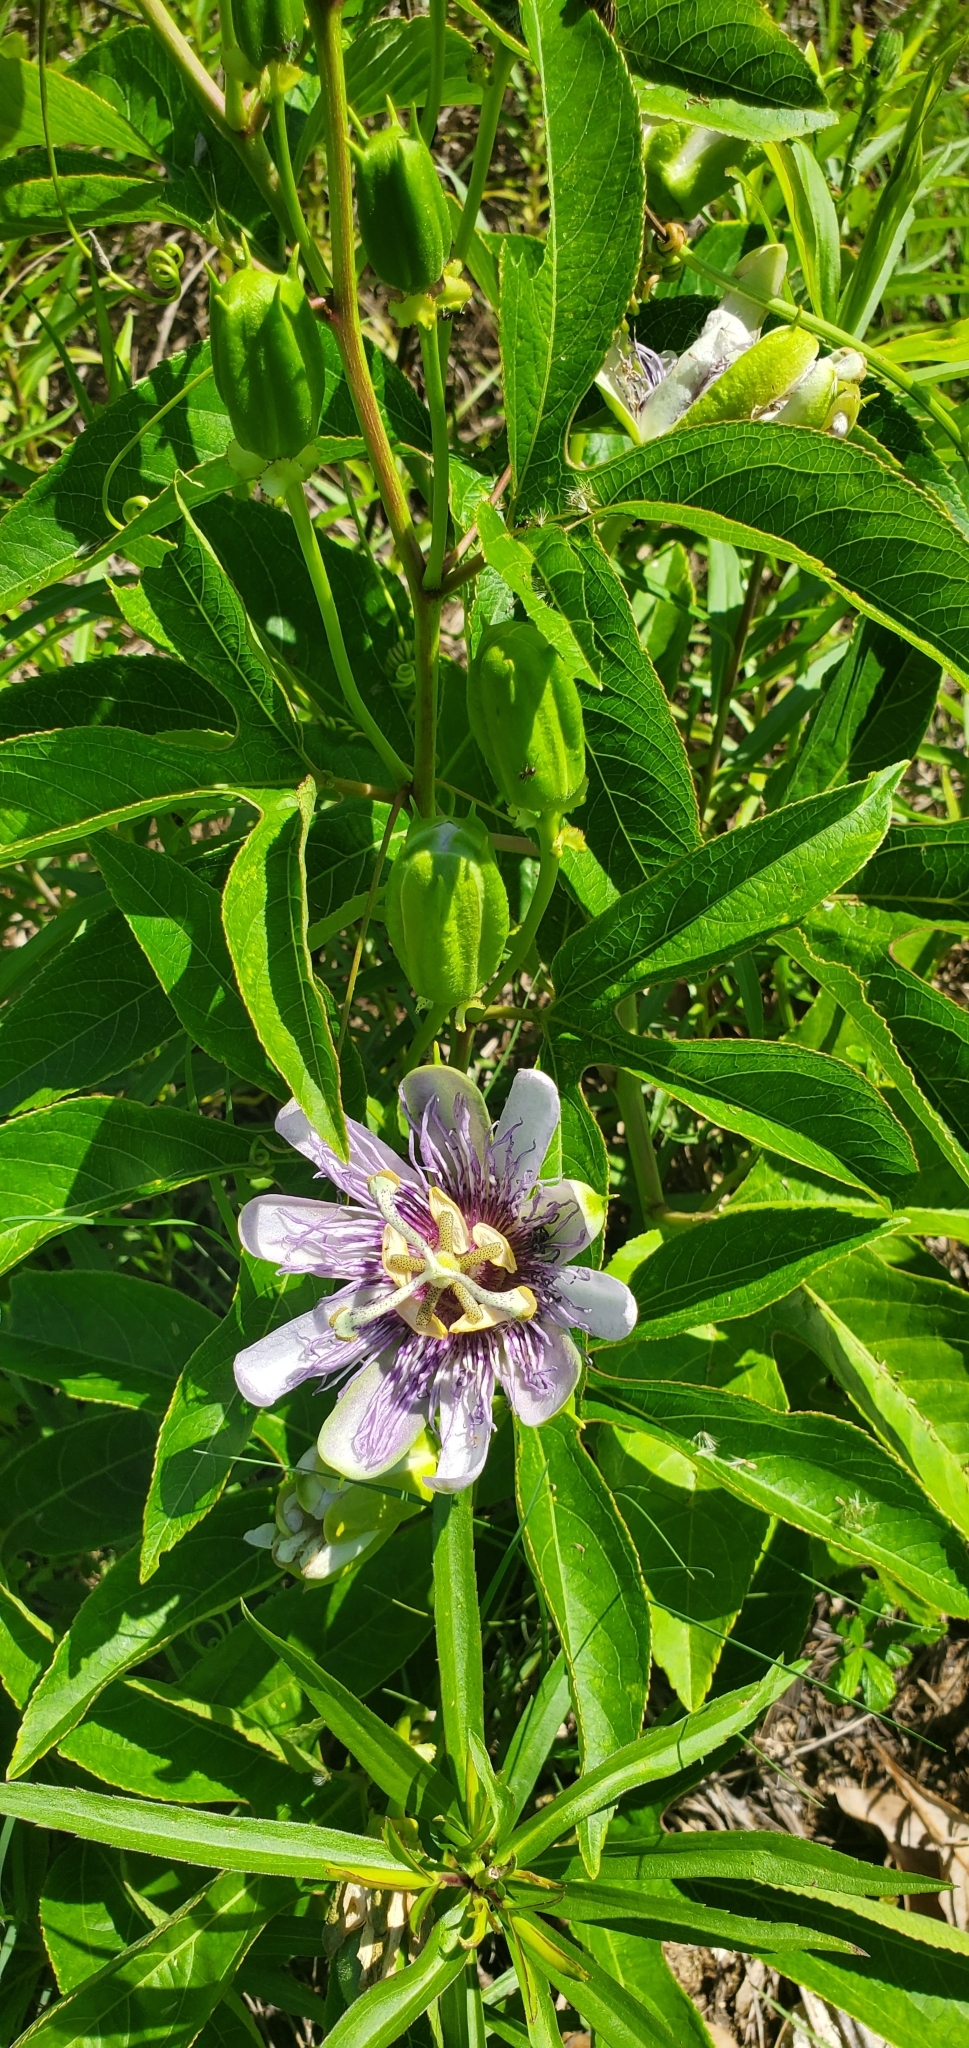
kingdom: Plantae
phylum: Tracheophyta
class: Magnoliopsida
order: Malpighiales
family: Passifloraceae
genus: Passiflora
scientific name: Passiflora incarnata
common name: Apricot-vine
